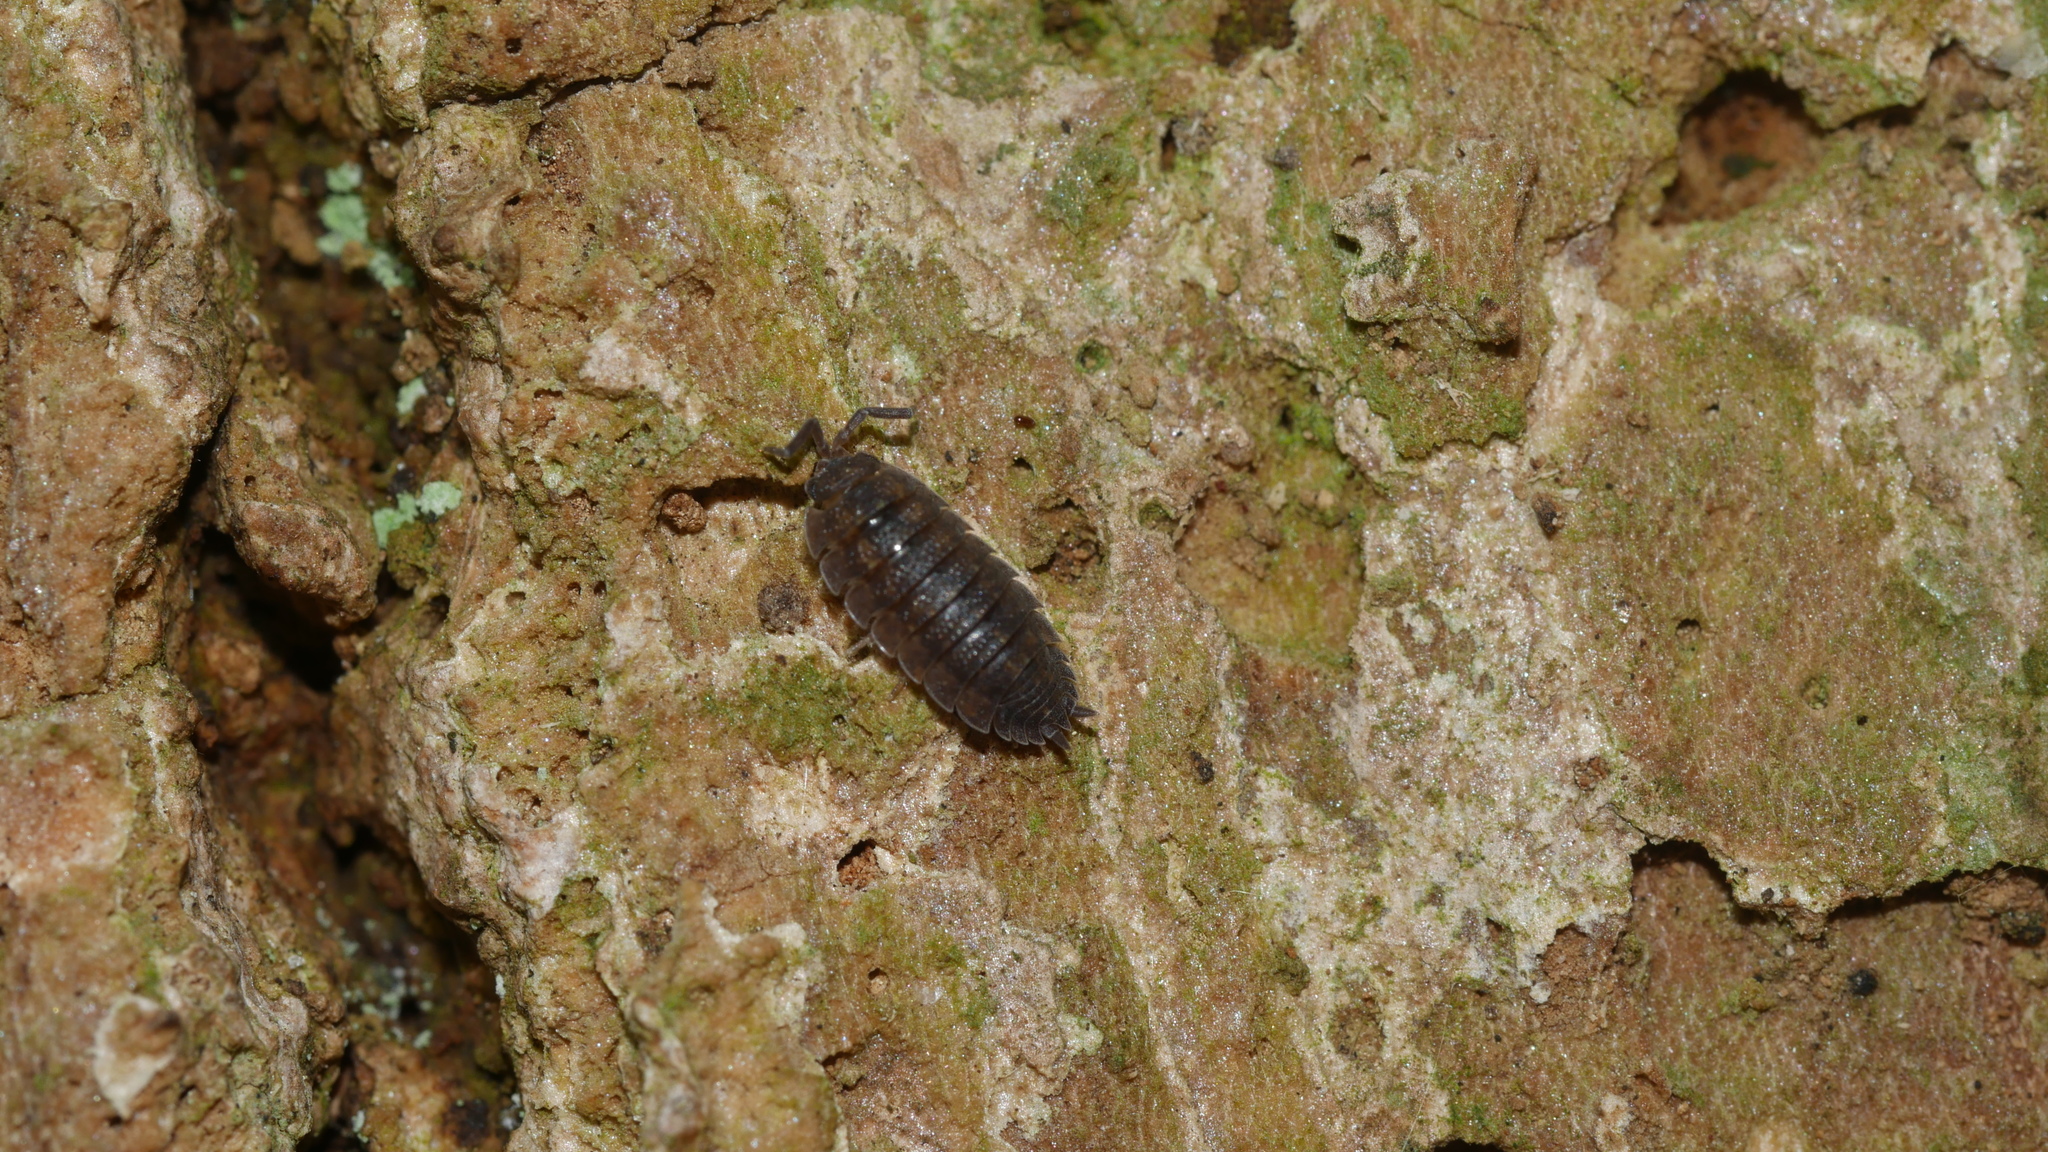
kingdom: Animalia
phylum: Arthropoda
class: Malacostraca
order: Isopoda
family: Porcellionidae
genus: Porcellio
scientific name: Porcellio scaber
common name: Common rough woodlouse
